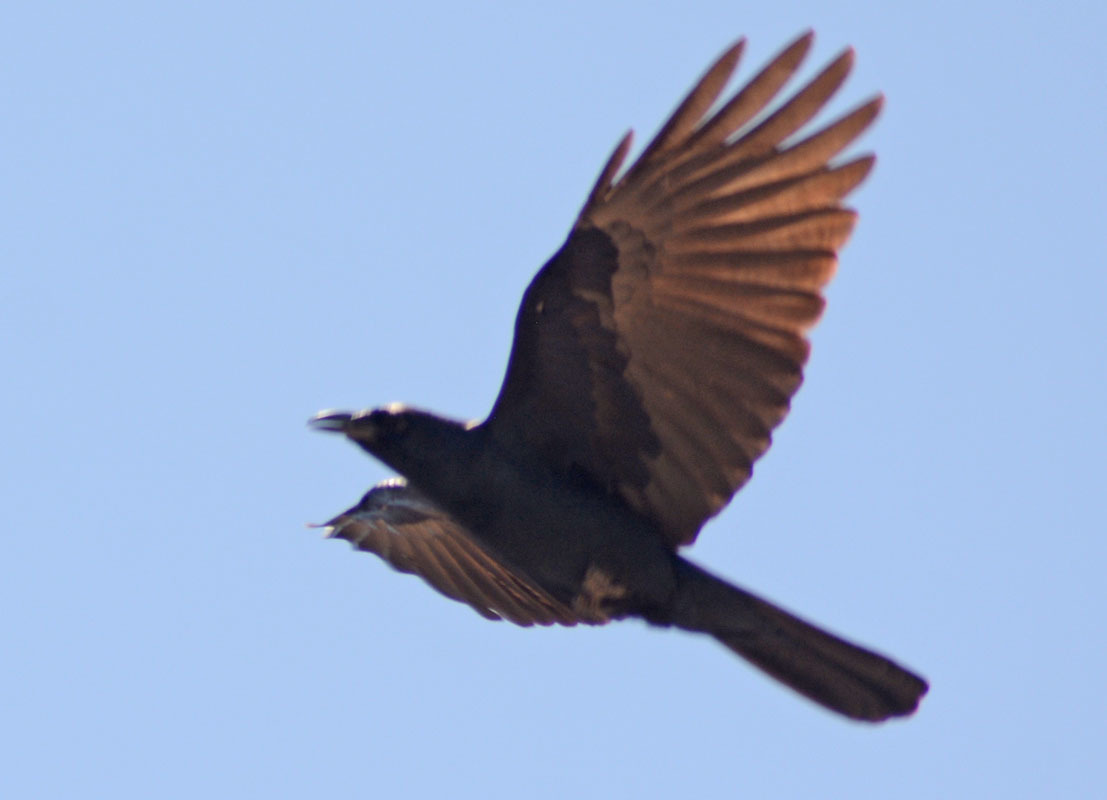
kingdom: Animalia
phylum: Chordata
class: Aves
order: Passeriformes
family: Corvidae
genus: Corvus
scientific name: Corvus sinaloae
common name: Sinaloa crow
